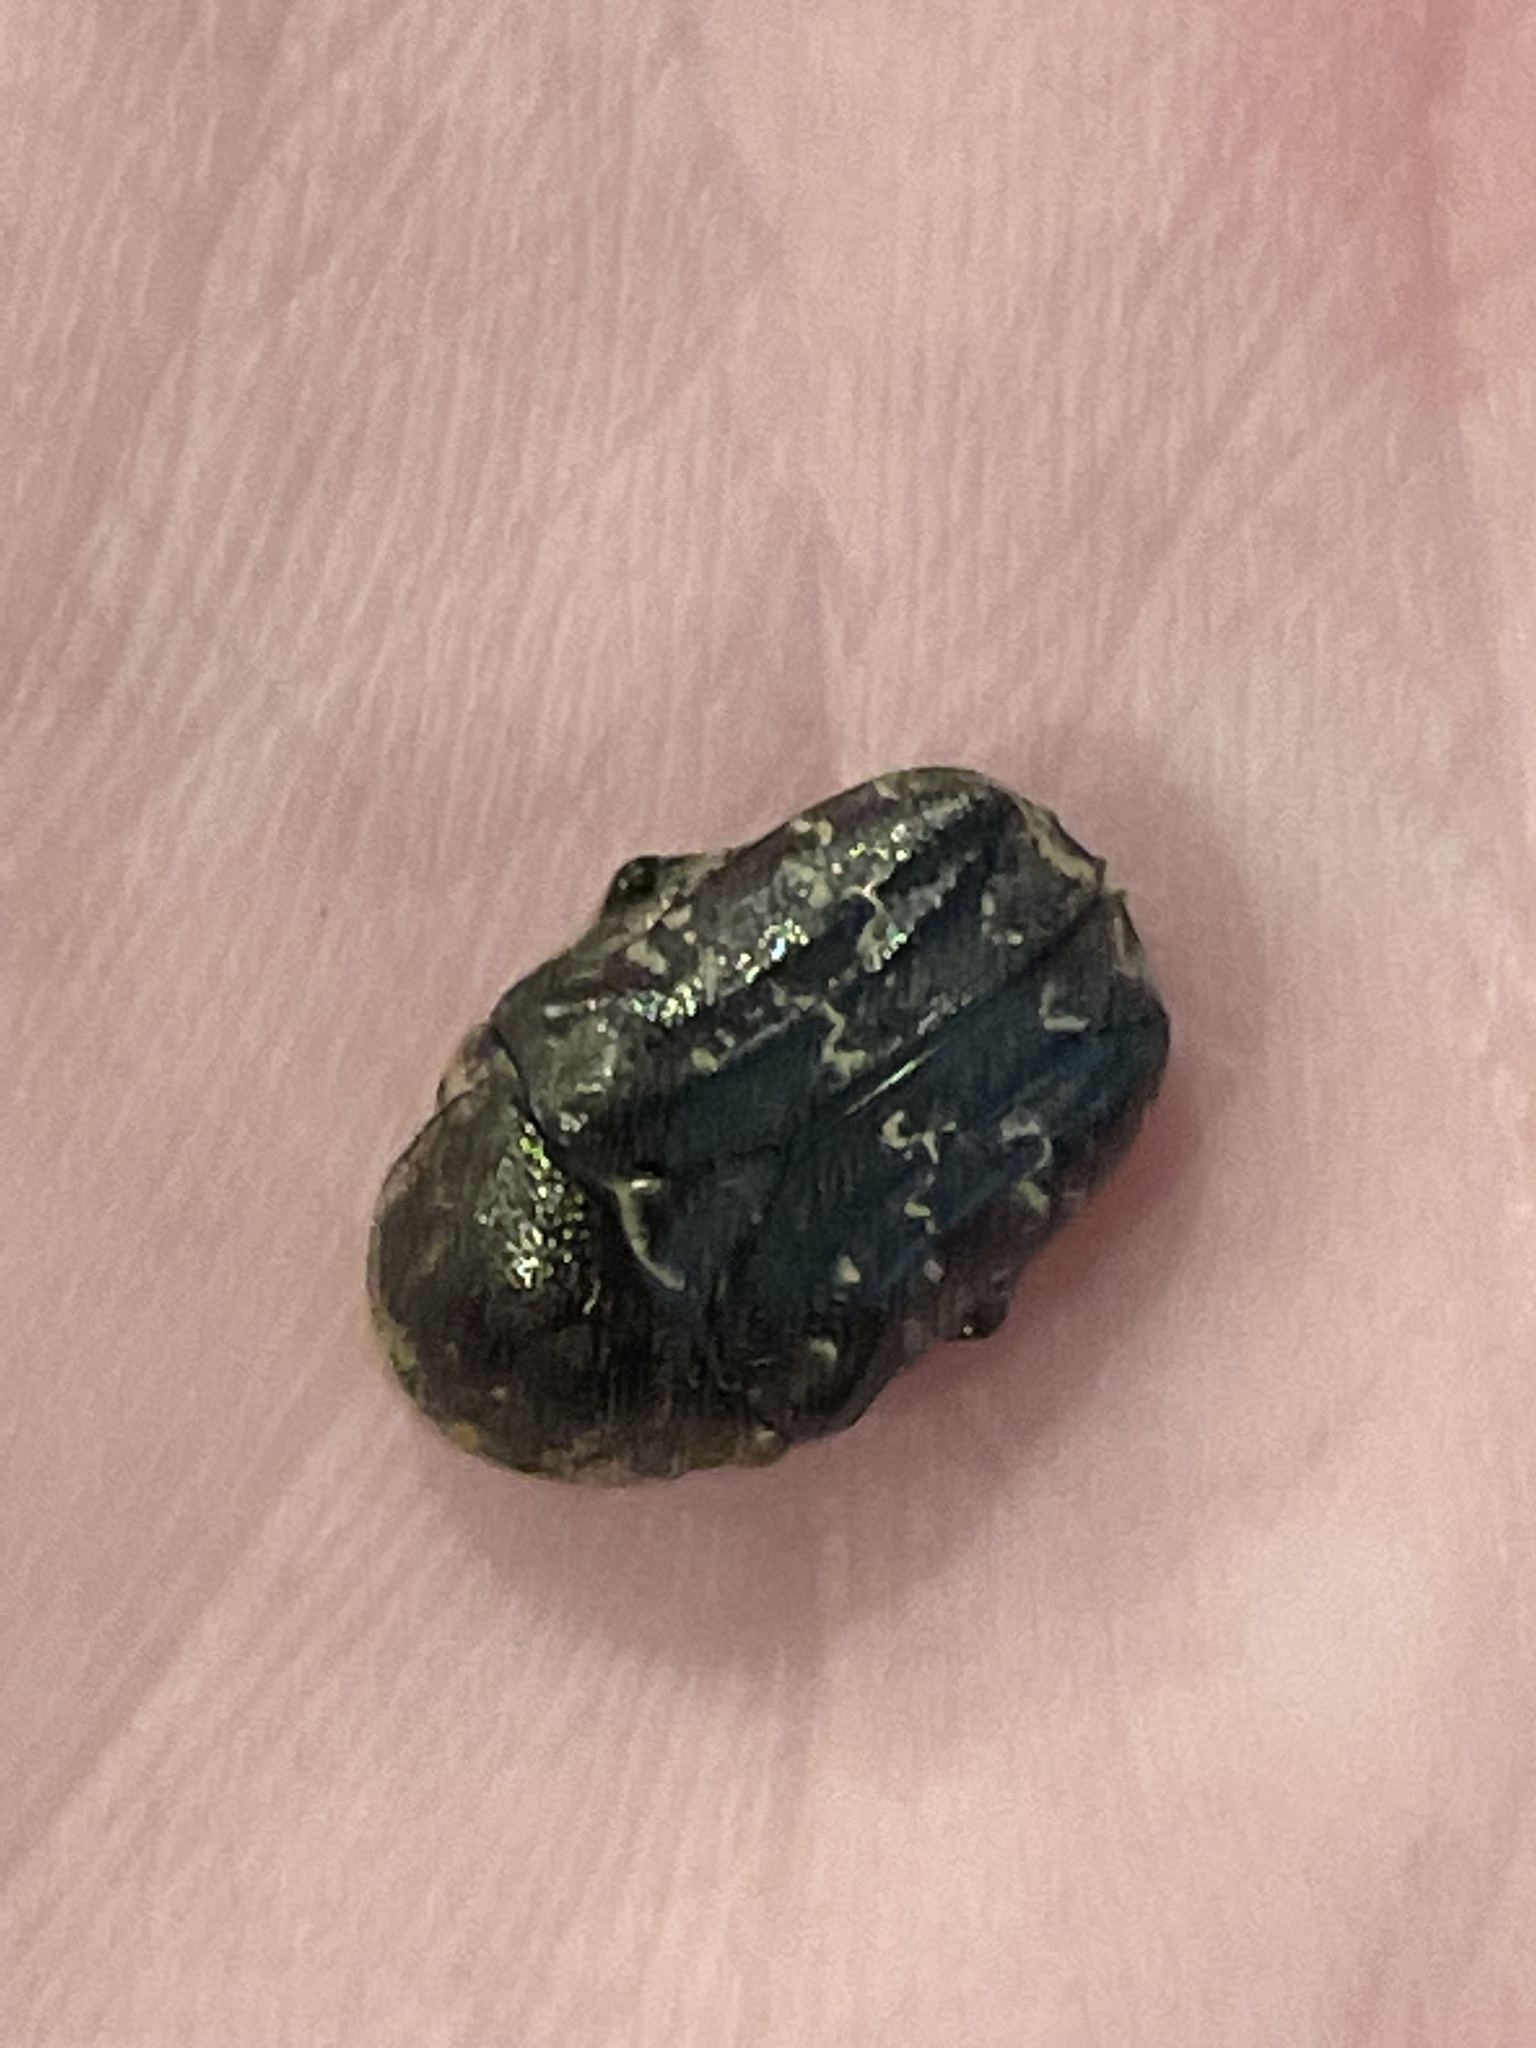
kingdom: Animalia
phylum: Arthropoda
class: Insecta
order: Coleoptera
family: Scarabaeidae
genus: Euphoria
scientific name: Euphoria sepulcralis
